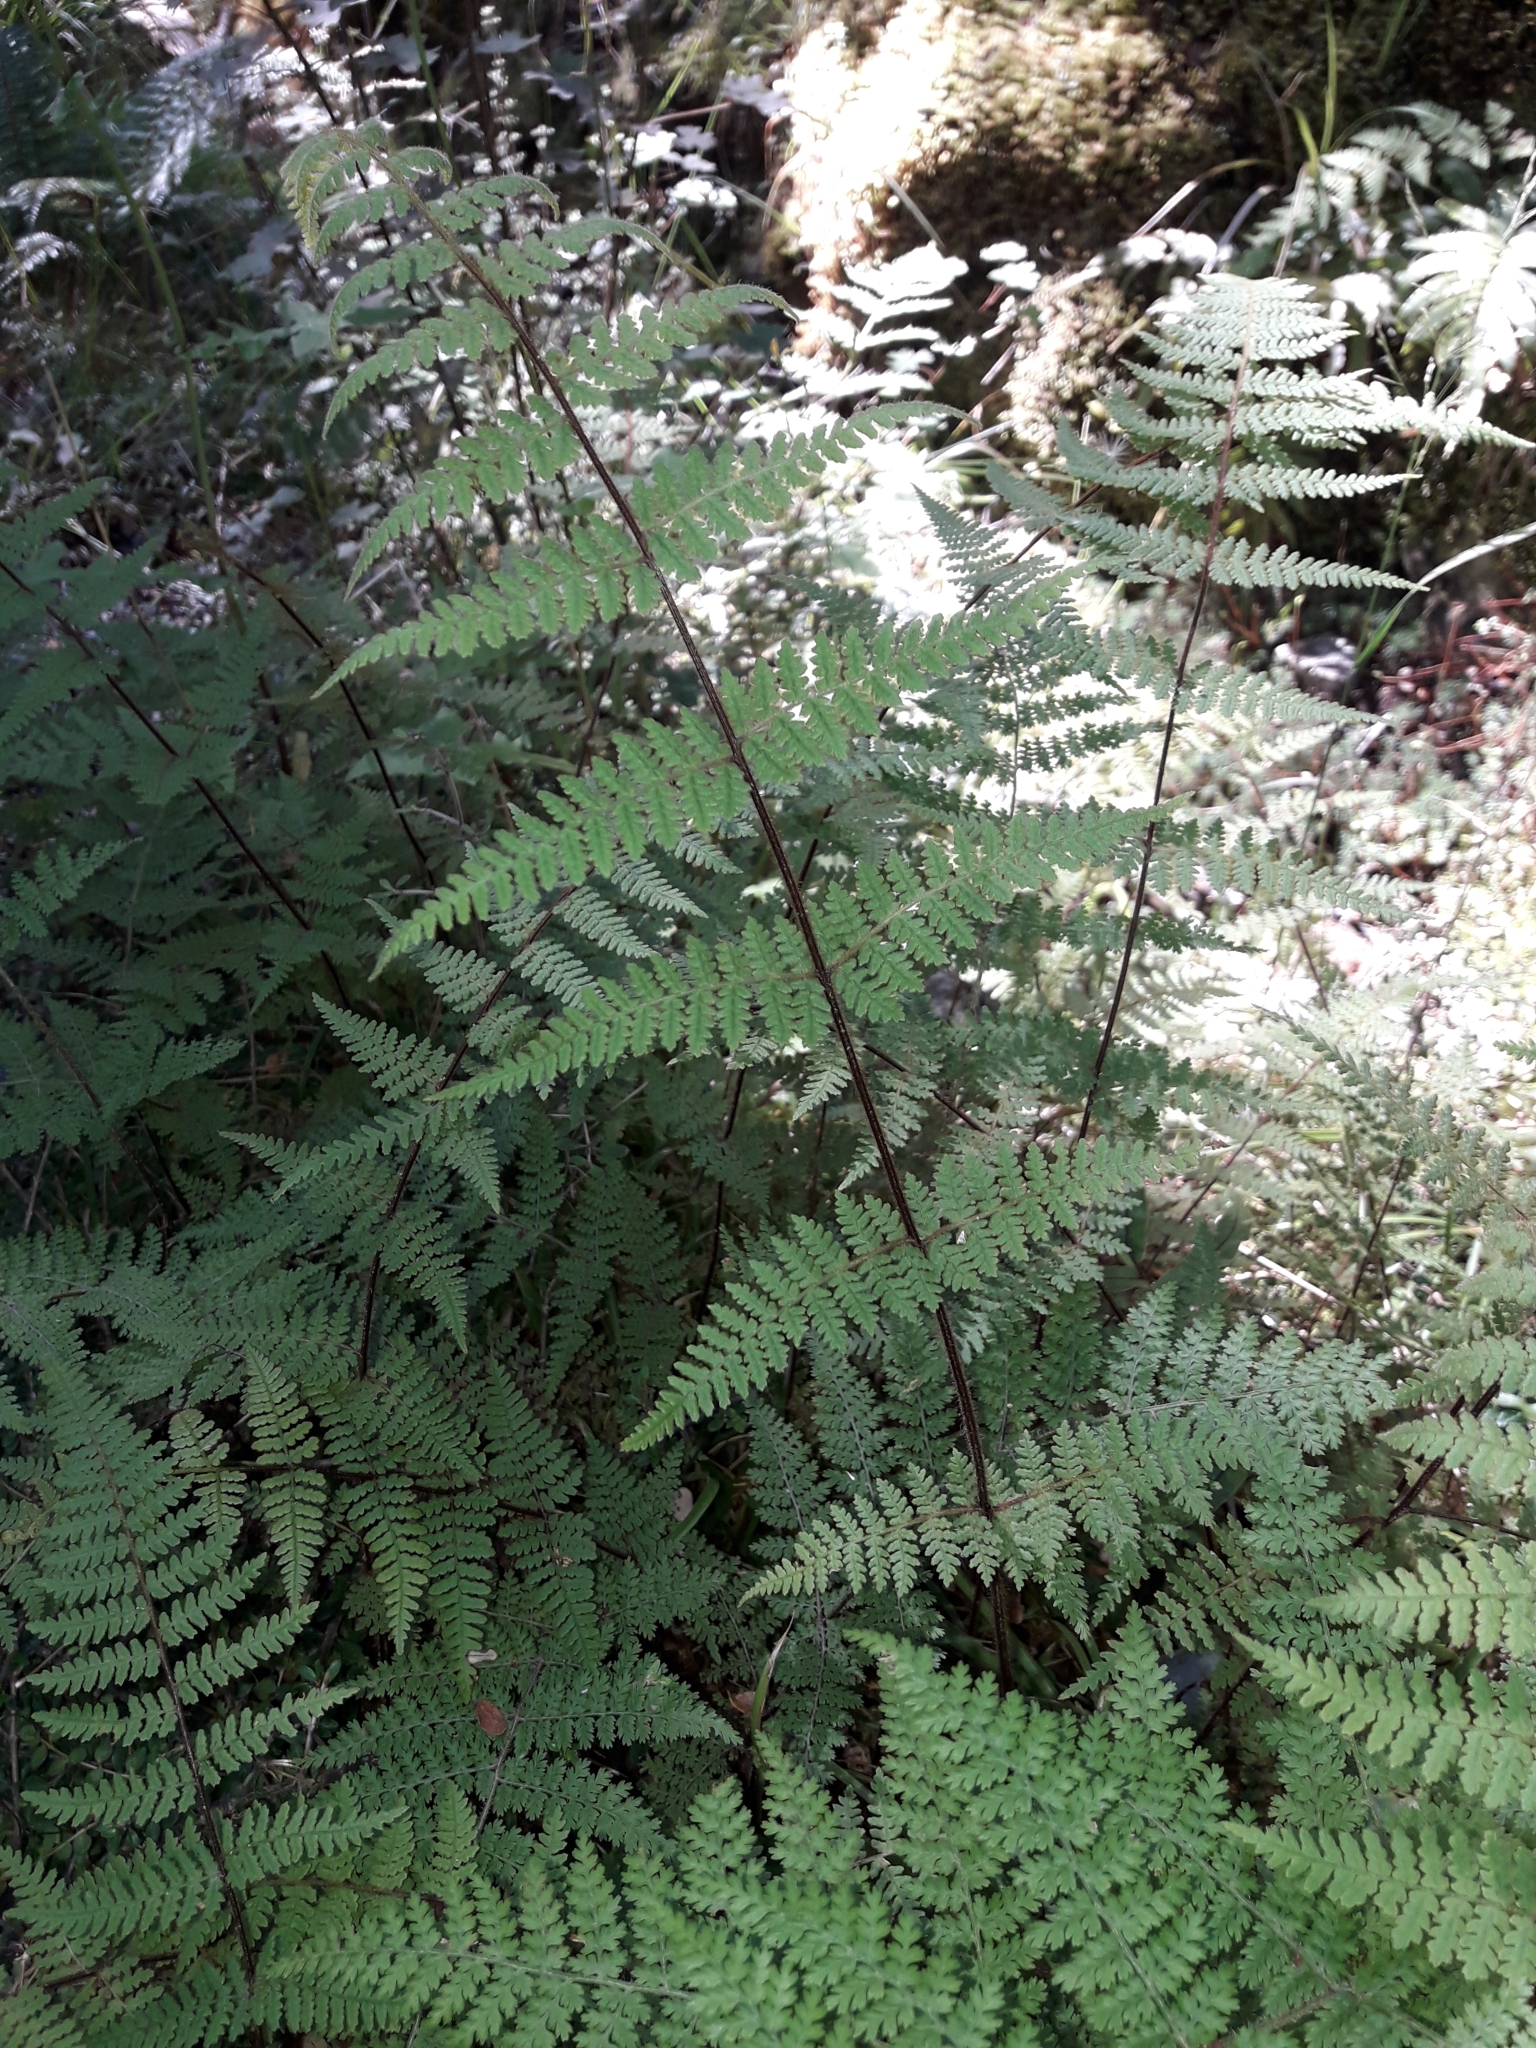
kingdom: Plantae
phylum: Tracheophyta
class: Polypodiopsida
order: Polypodiales
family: Dennstaedtiaceae
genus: Hypolepis
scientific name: Hypolepis rugosula
